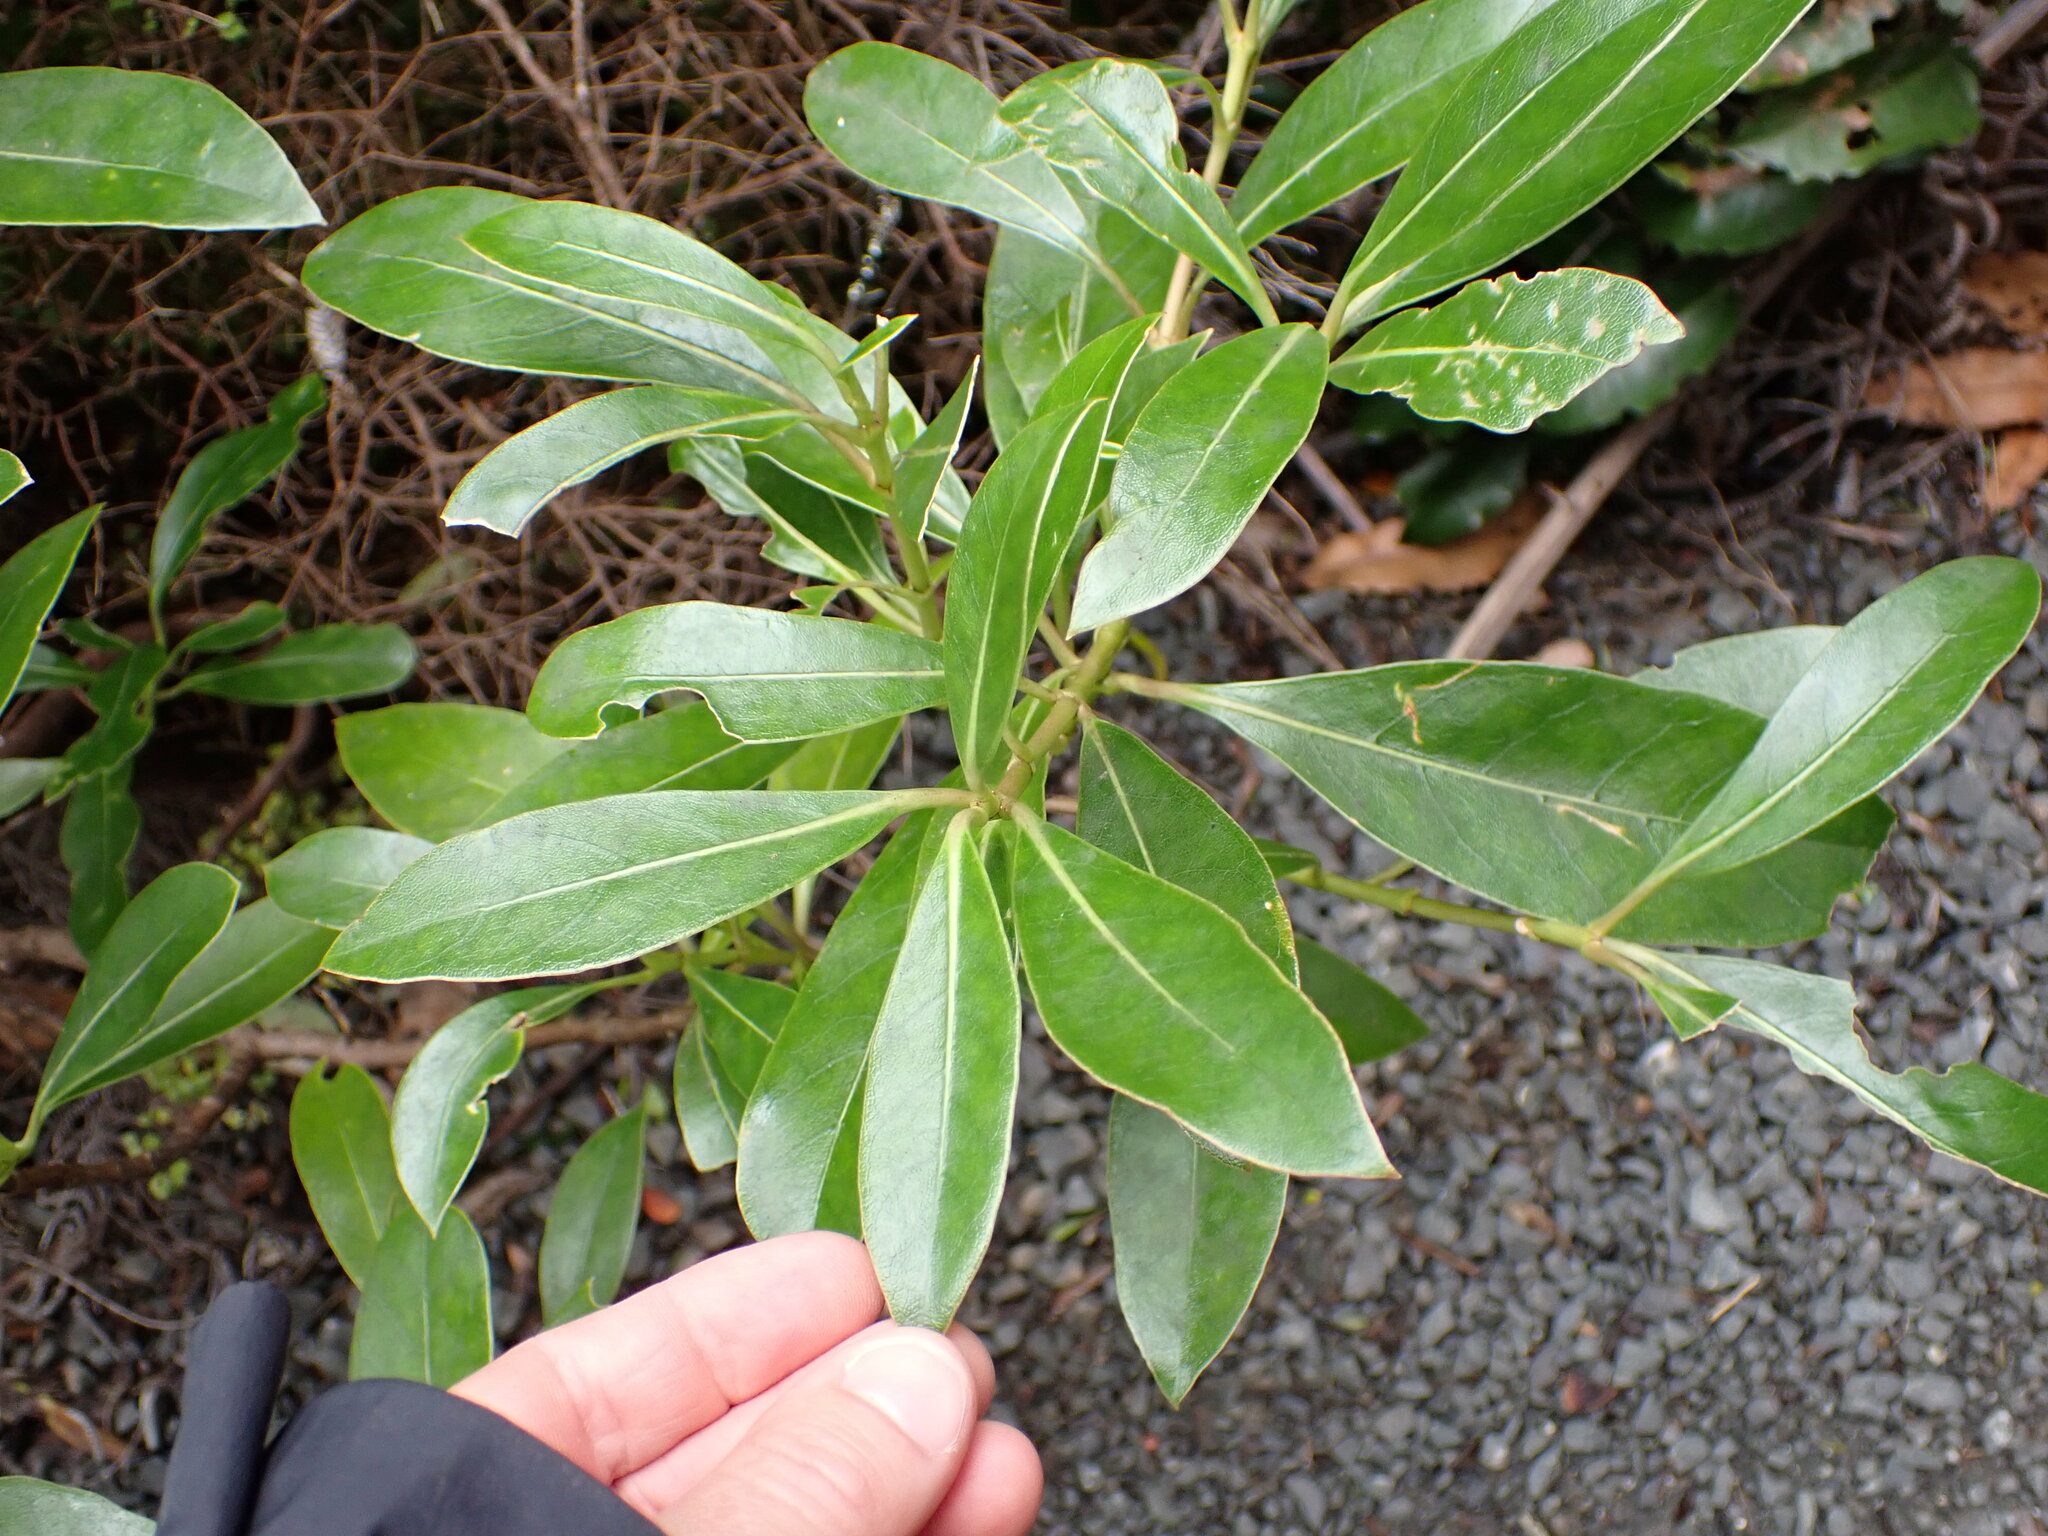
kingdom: Plantae
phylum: Tracheophyta
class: Magnoliopsida
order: Gentianales
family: Rubiaceae
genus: Coprosma
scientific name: Coprosma lucida
